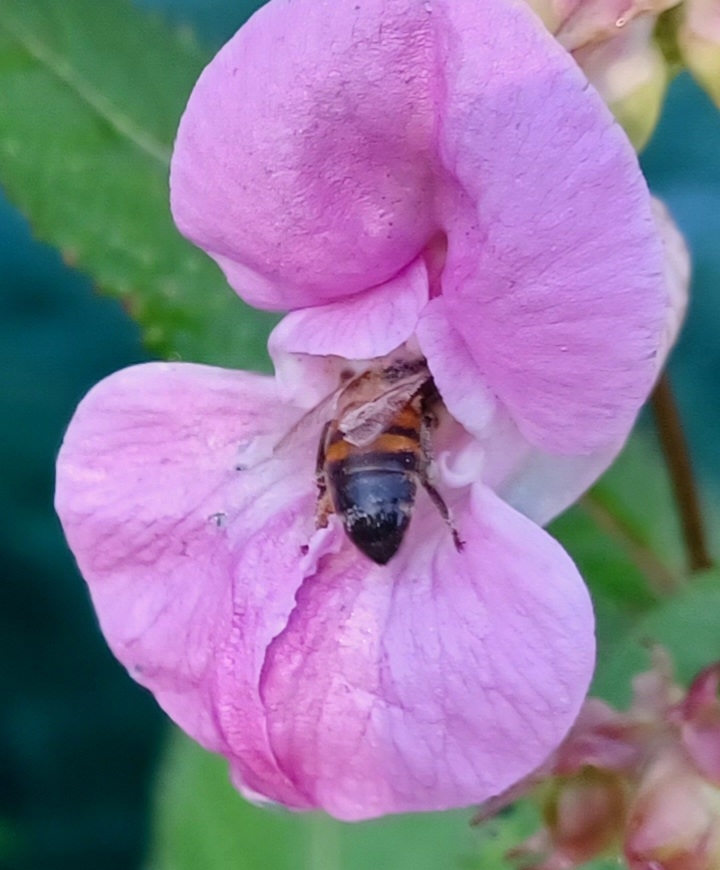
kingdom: Animalia
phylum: Arthropoda
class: Insecta
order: Hymenoptera
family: Apidae
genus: Apis
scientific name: Apis mellifera
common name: Honey bee
